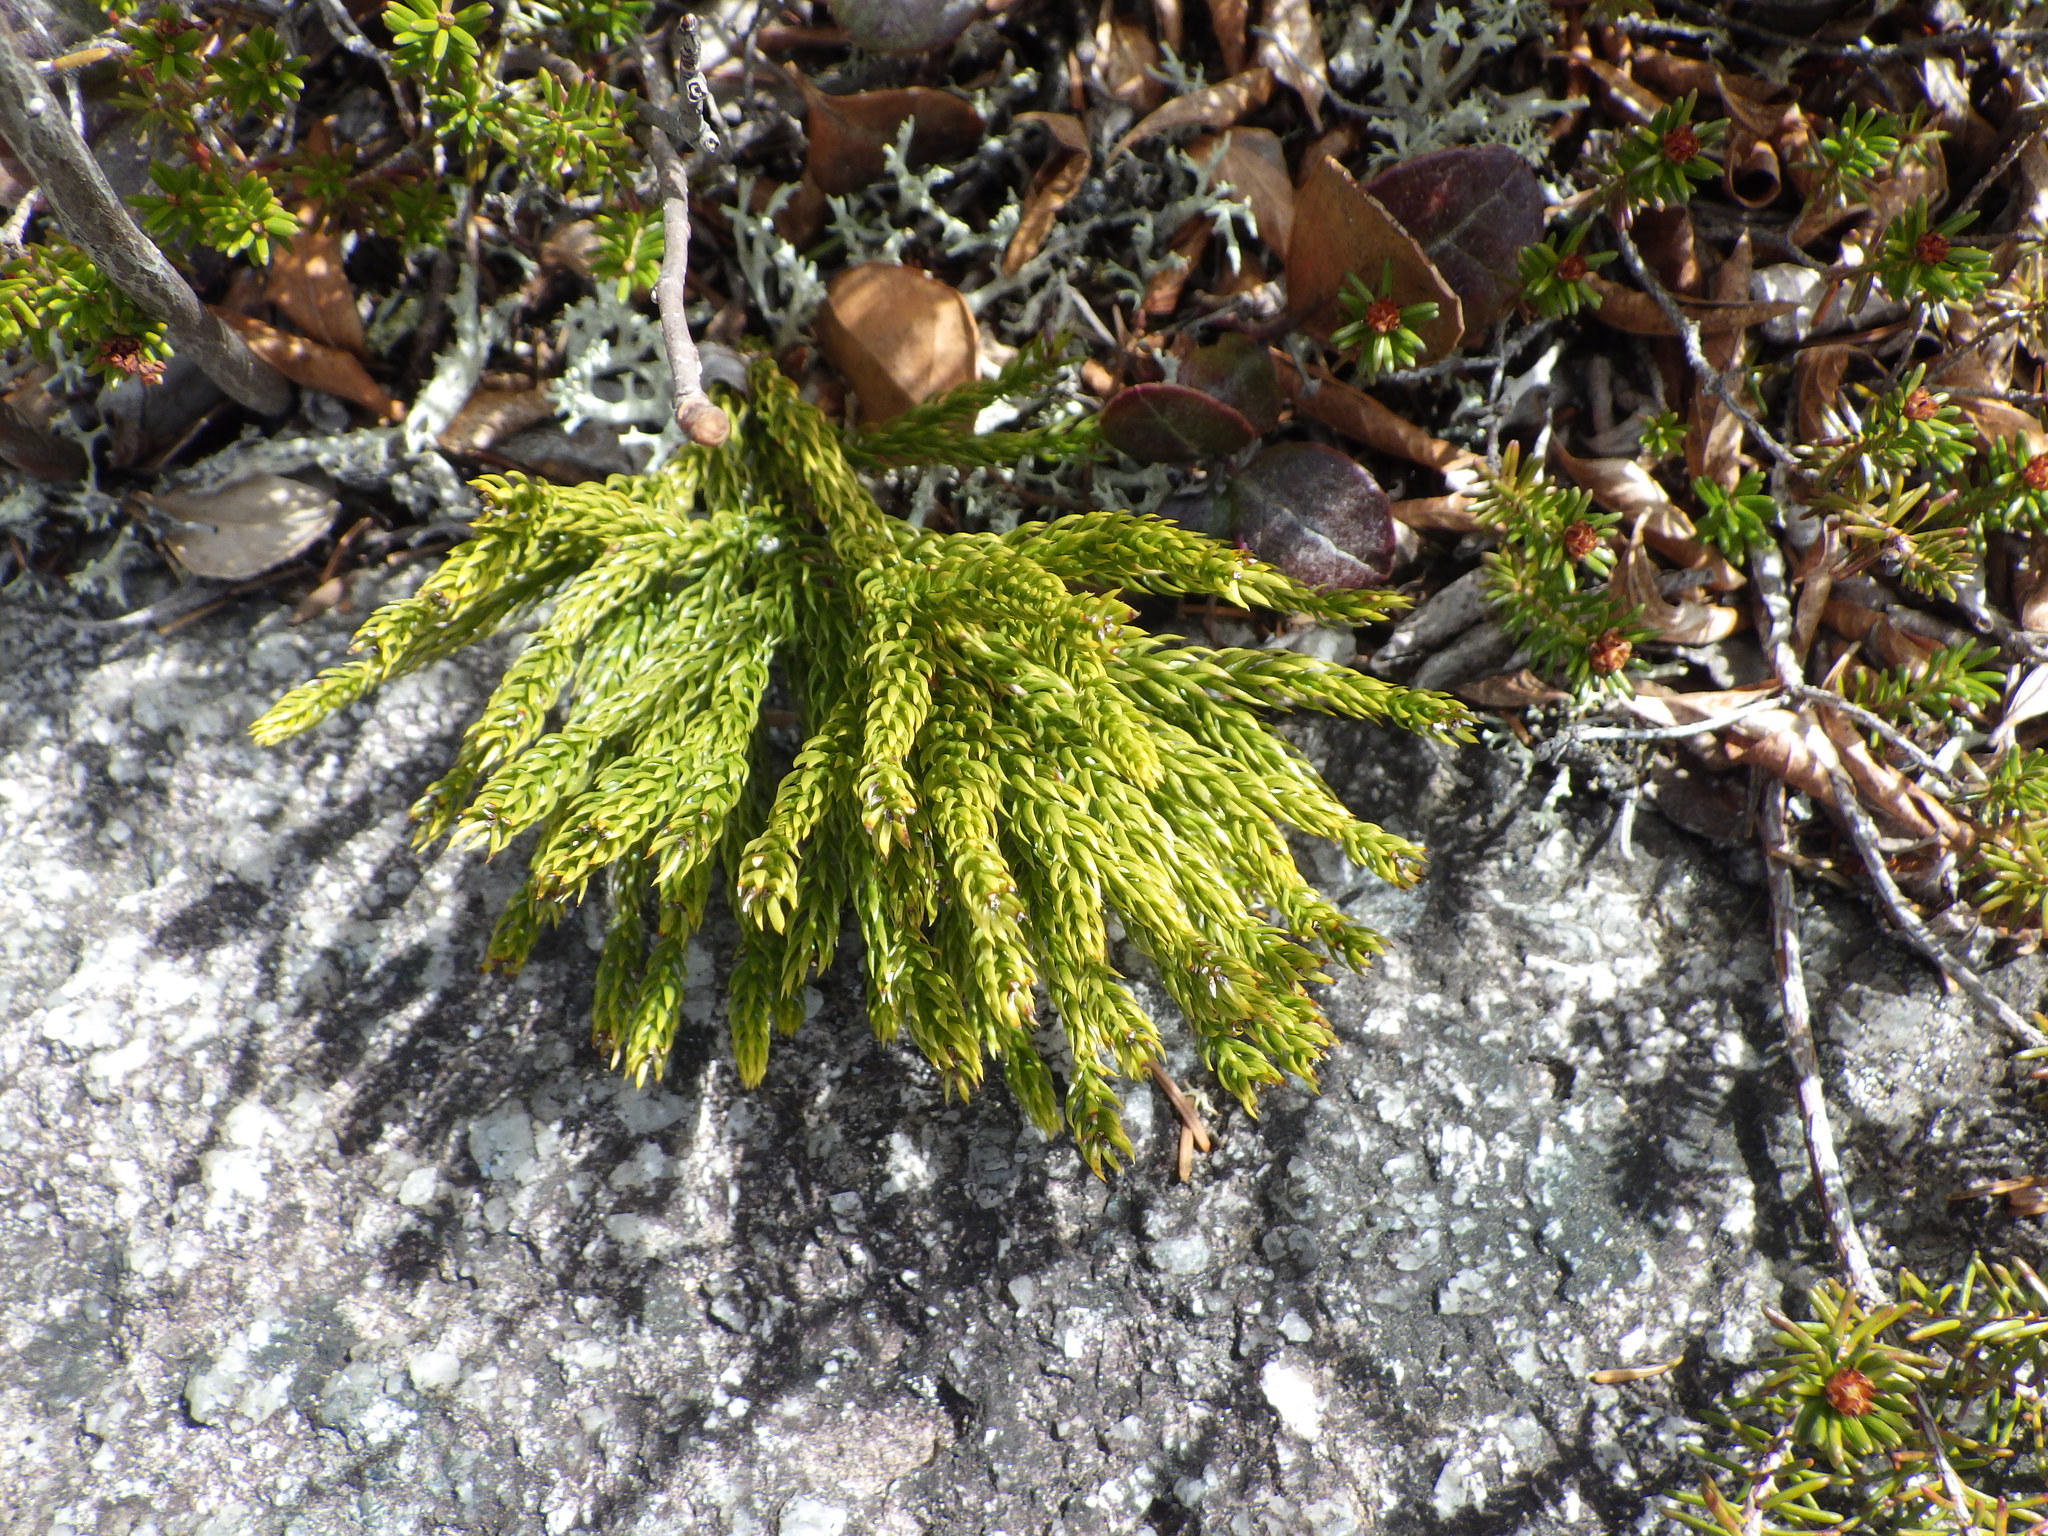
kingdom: Plantae
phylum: Tracheophyta
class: Lycopodiopsida
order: Lycopodiales
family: Lycopodiaceae
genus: Dendrolycopodium
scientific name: Dendrolycopodium hickeyi
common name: Hickey's clubmoss
